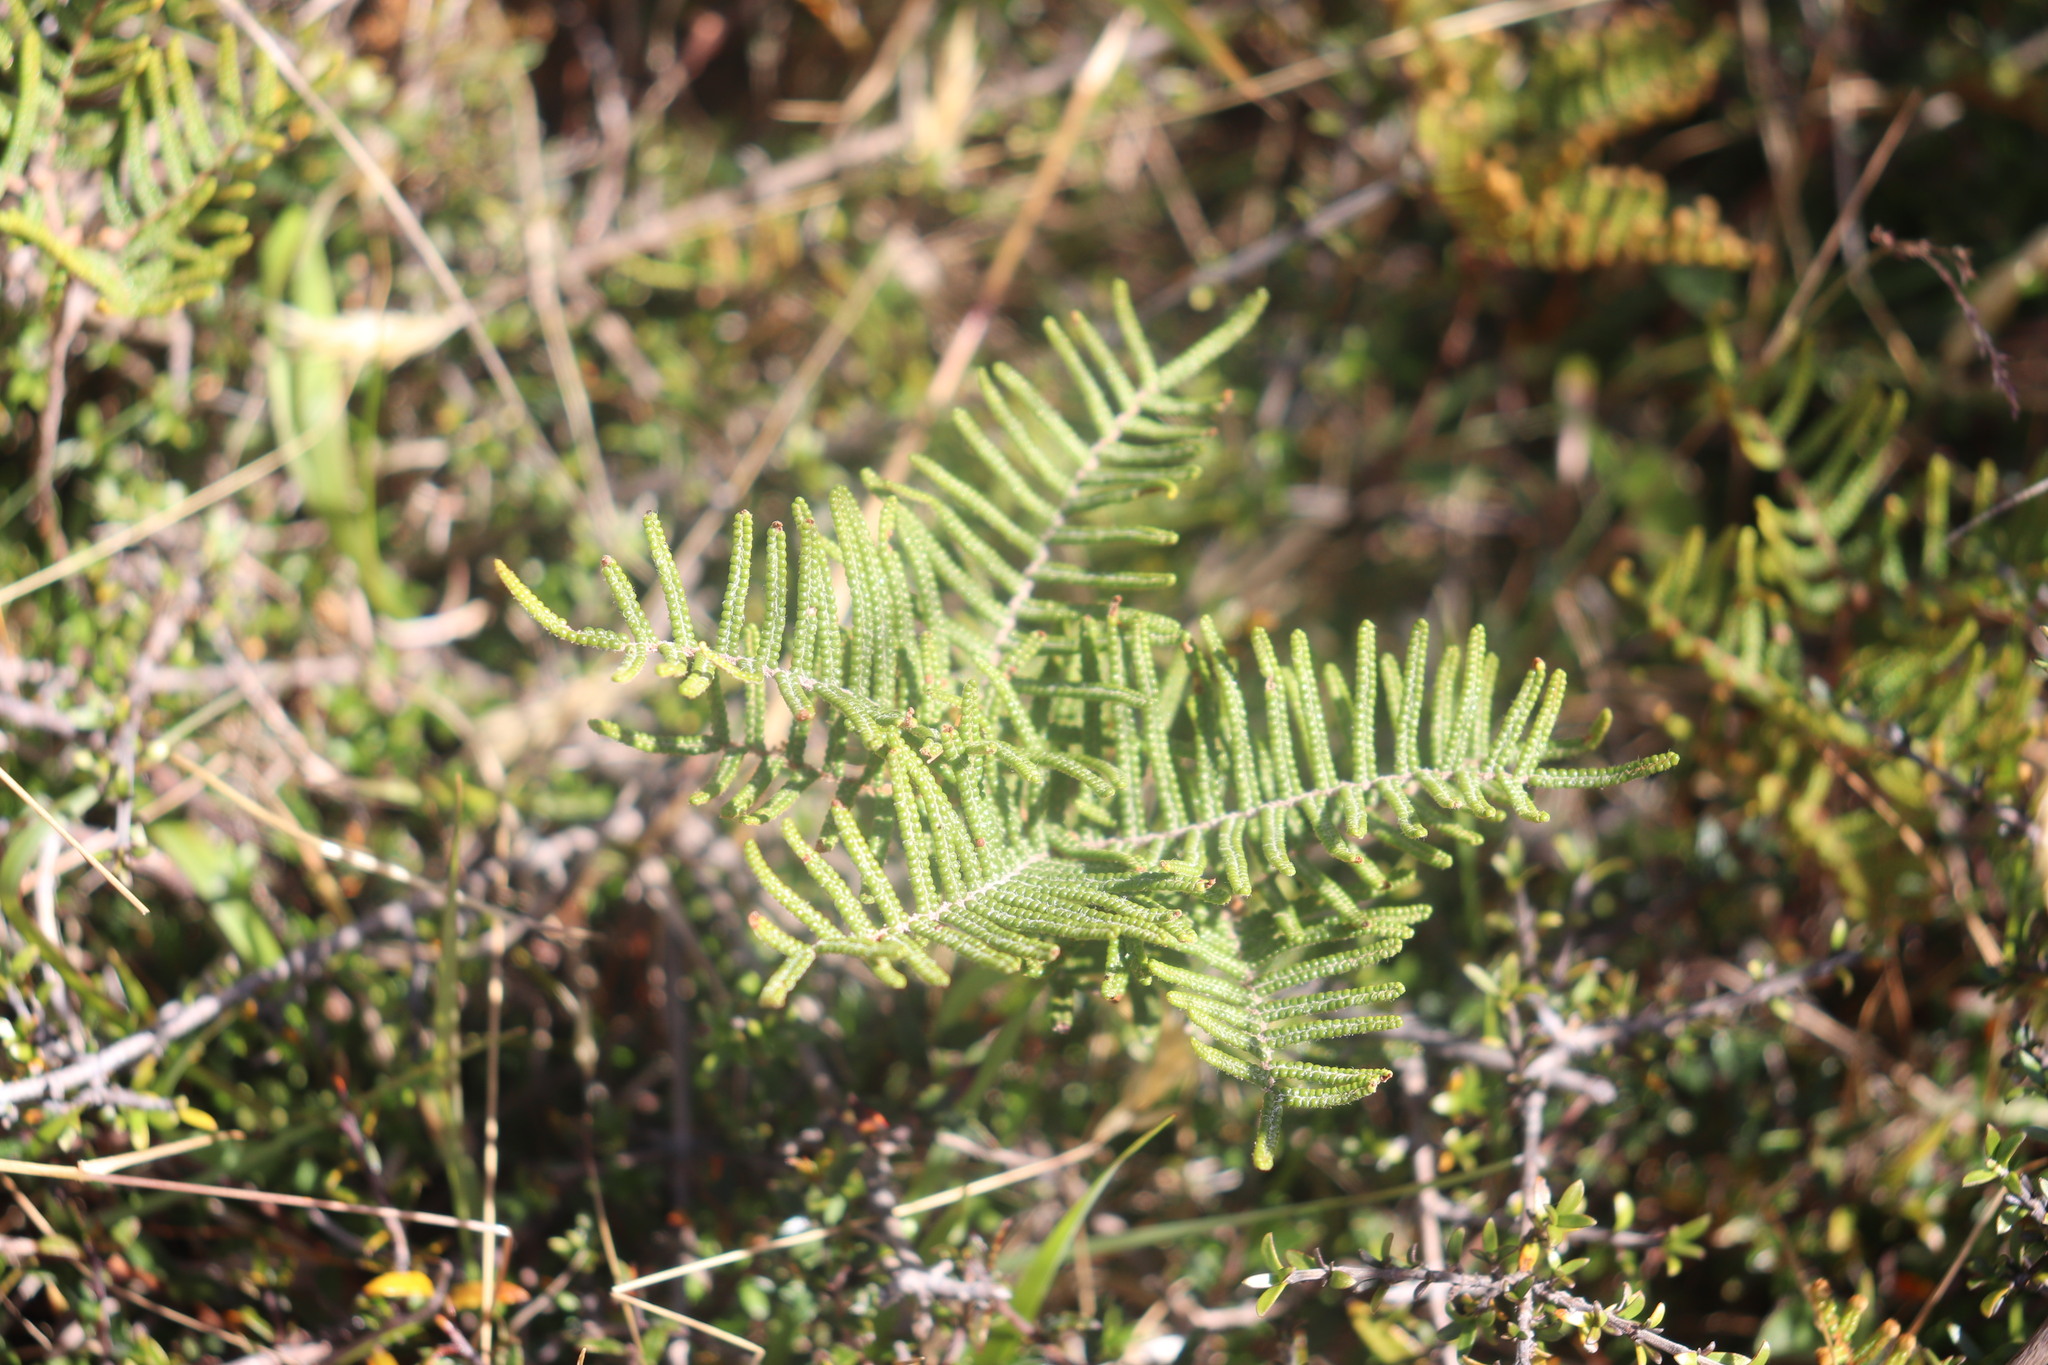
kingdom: Plantae
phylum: Tracheophyta
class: Polypodiopsida
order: Gleicheniales
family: Gleicheniaceae
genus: Gleichenia
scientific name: Gleichenia alpina
